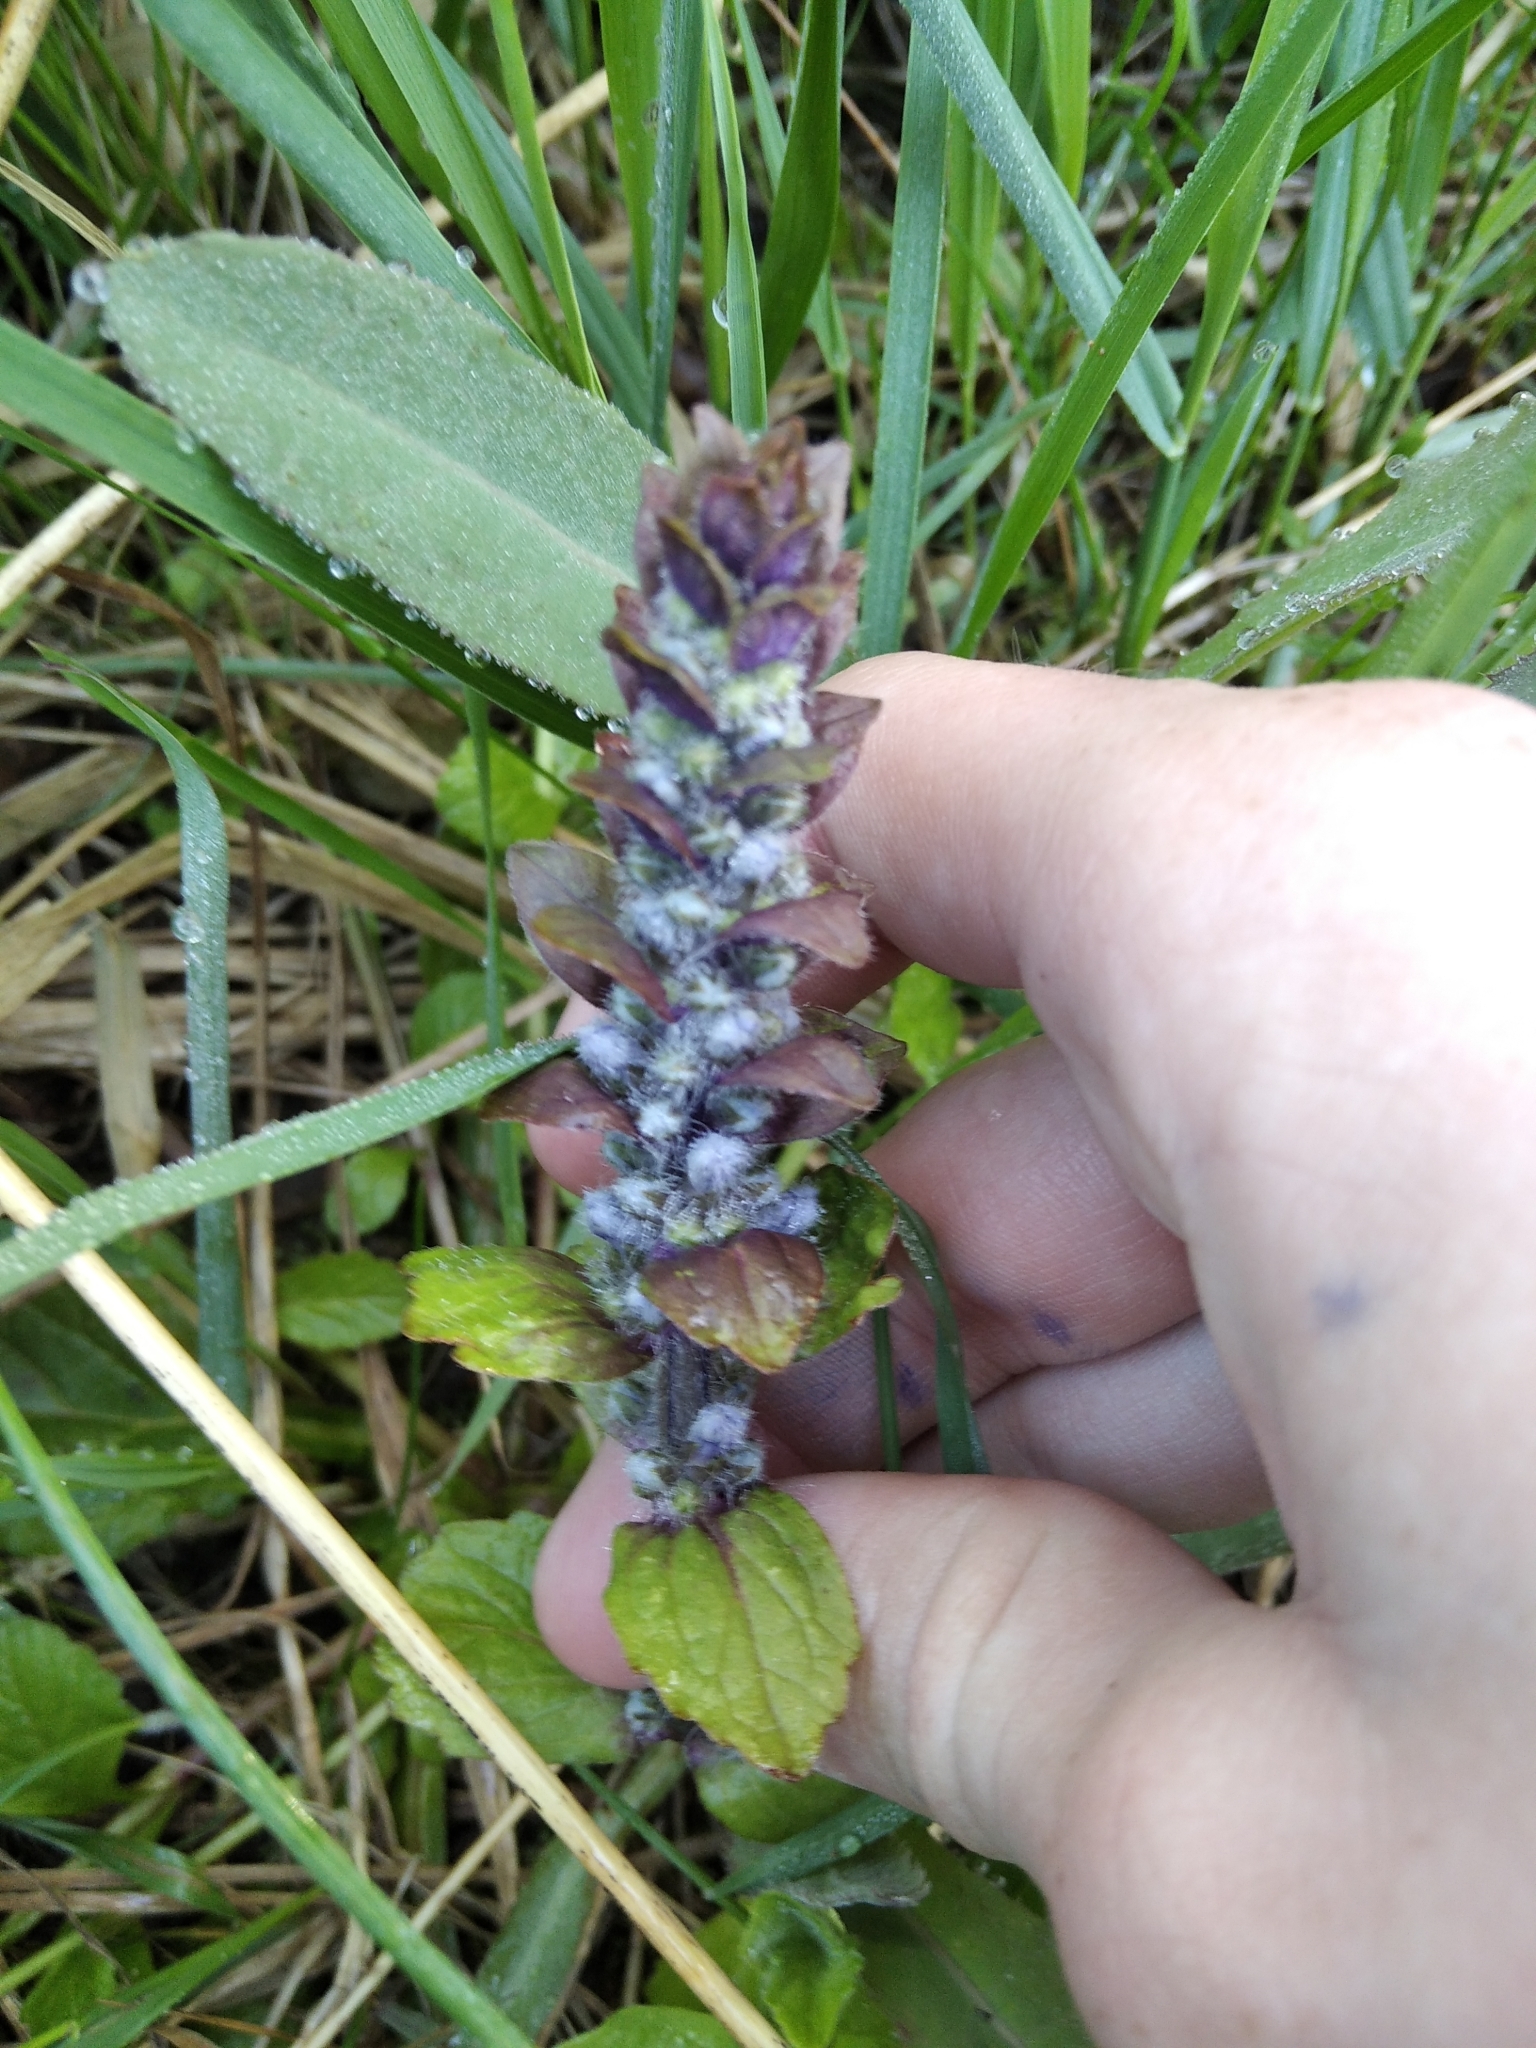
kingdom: Plantae
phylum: Tracheophyta
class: Magnoliopsida
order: Lamiales
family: Lamiaceae
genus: Ajuga
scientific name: Ajuga reptans
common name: Bugle
